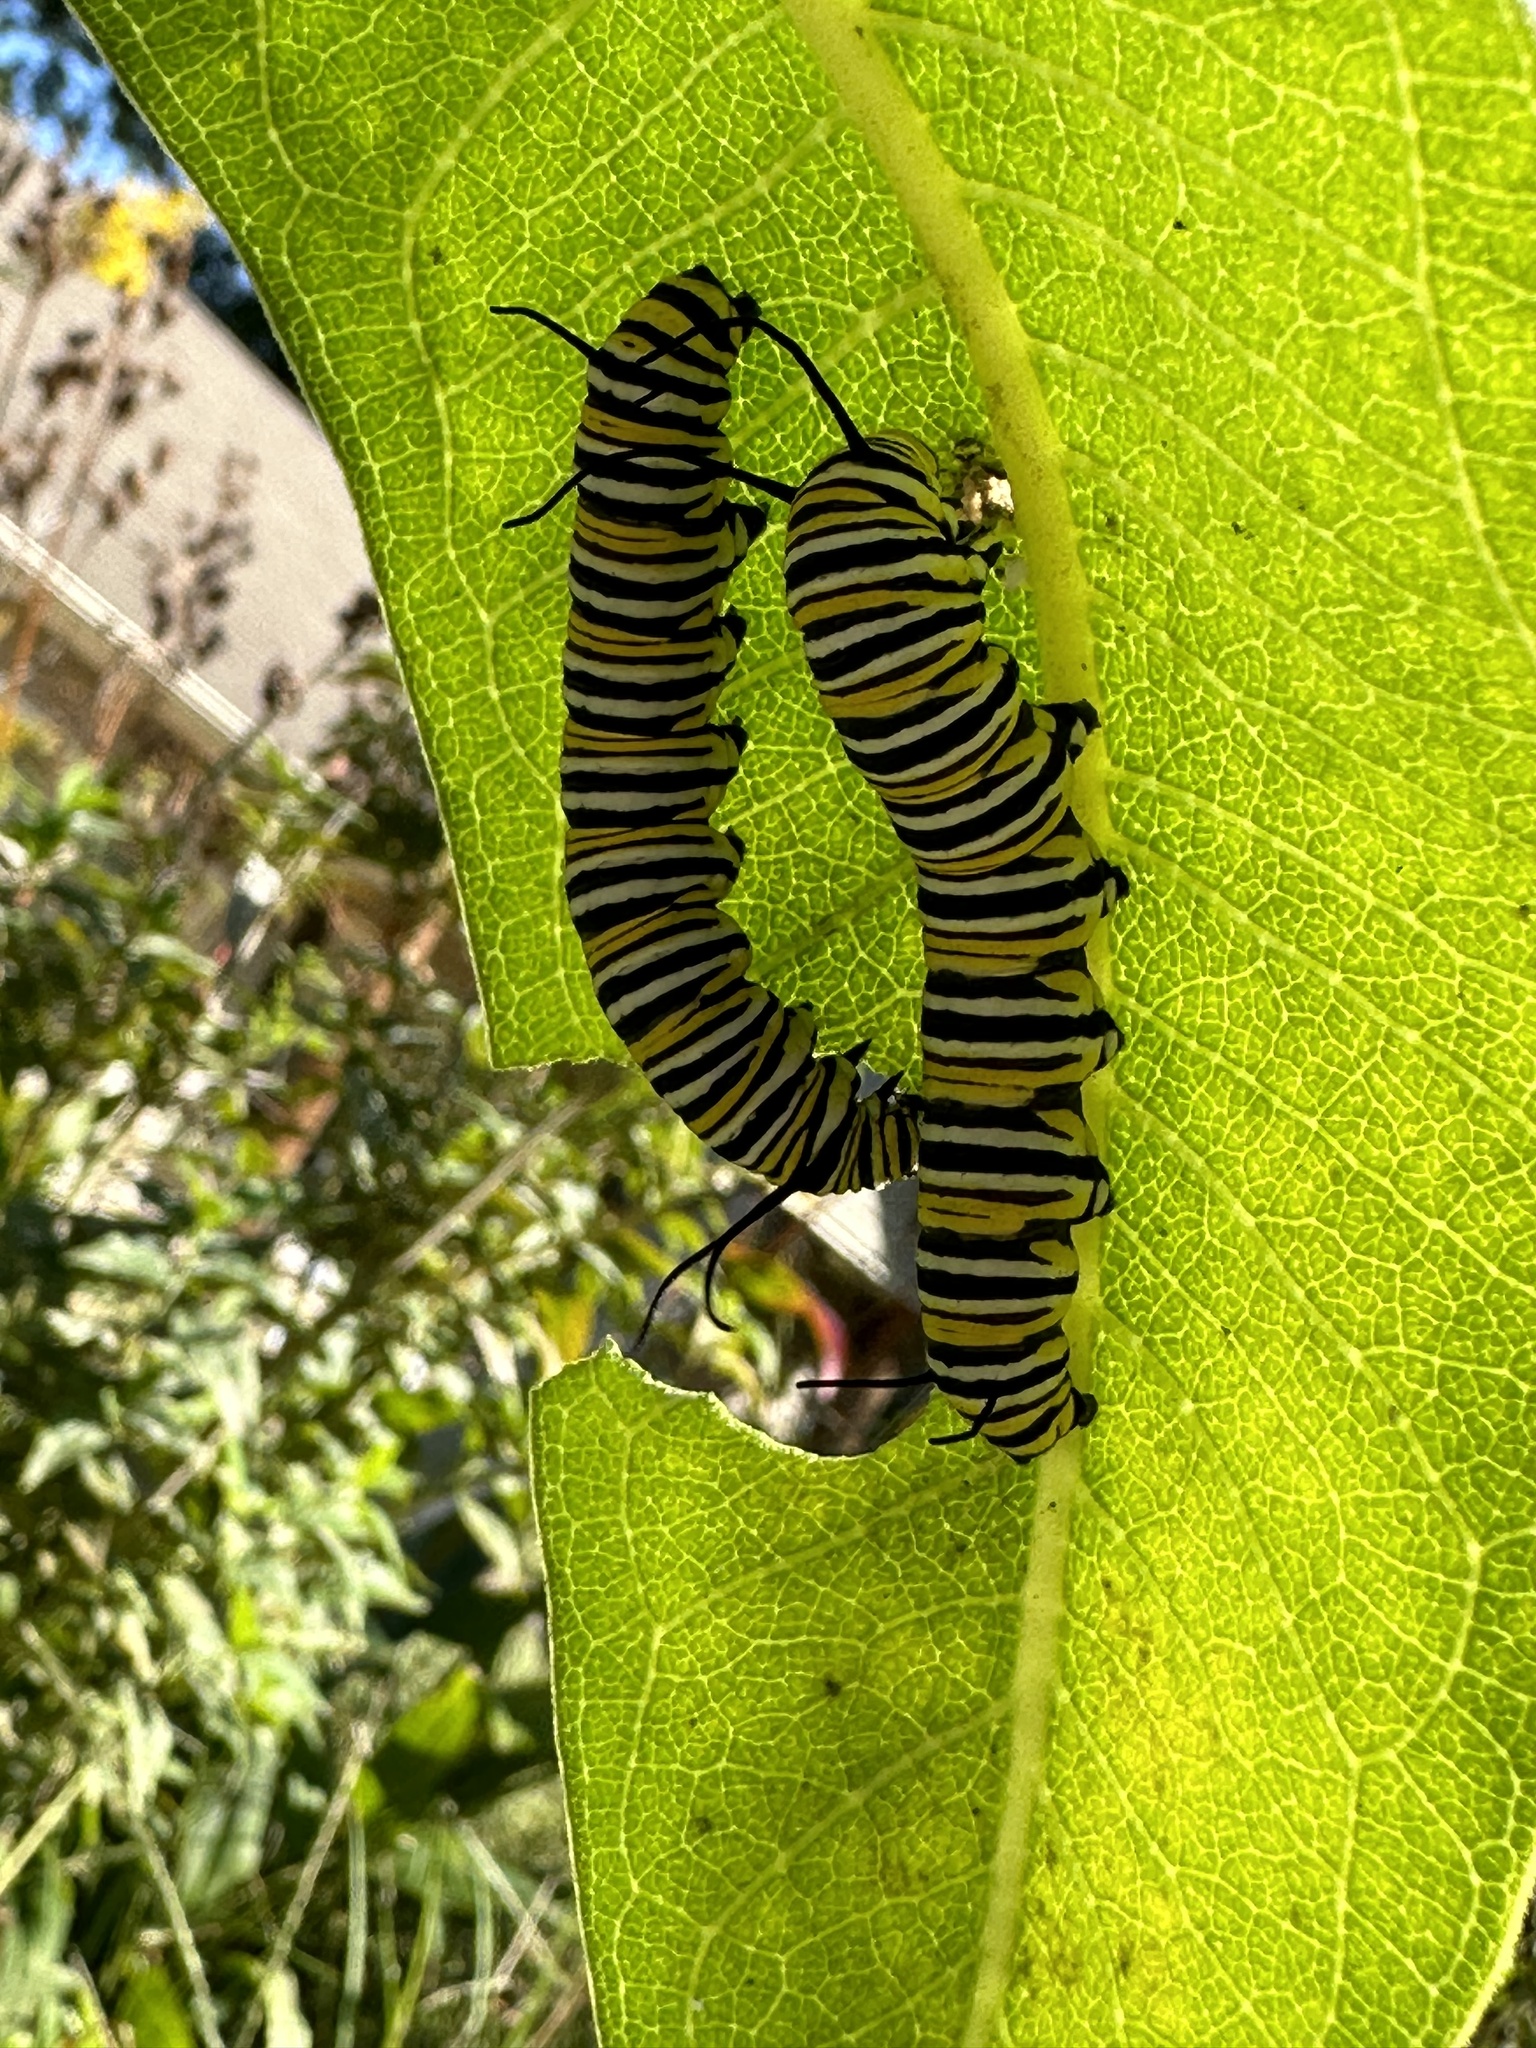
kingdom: Animalia
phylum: Arthropoda
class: Insecta
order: Lepidoptera
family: Nymphalidae
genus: Danaus
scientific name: Danaus plexippus
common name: Monarch
